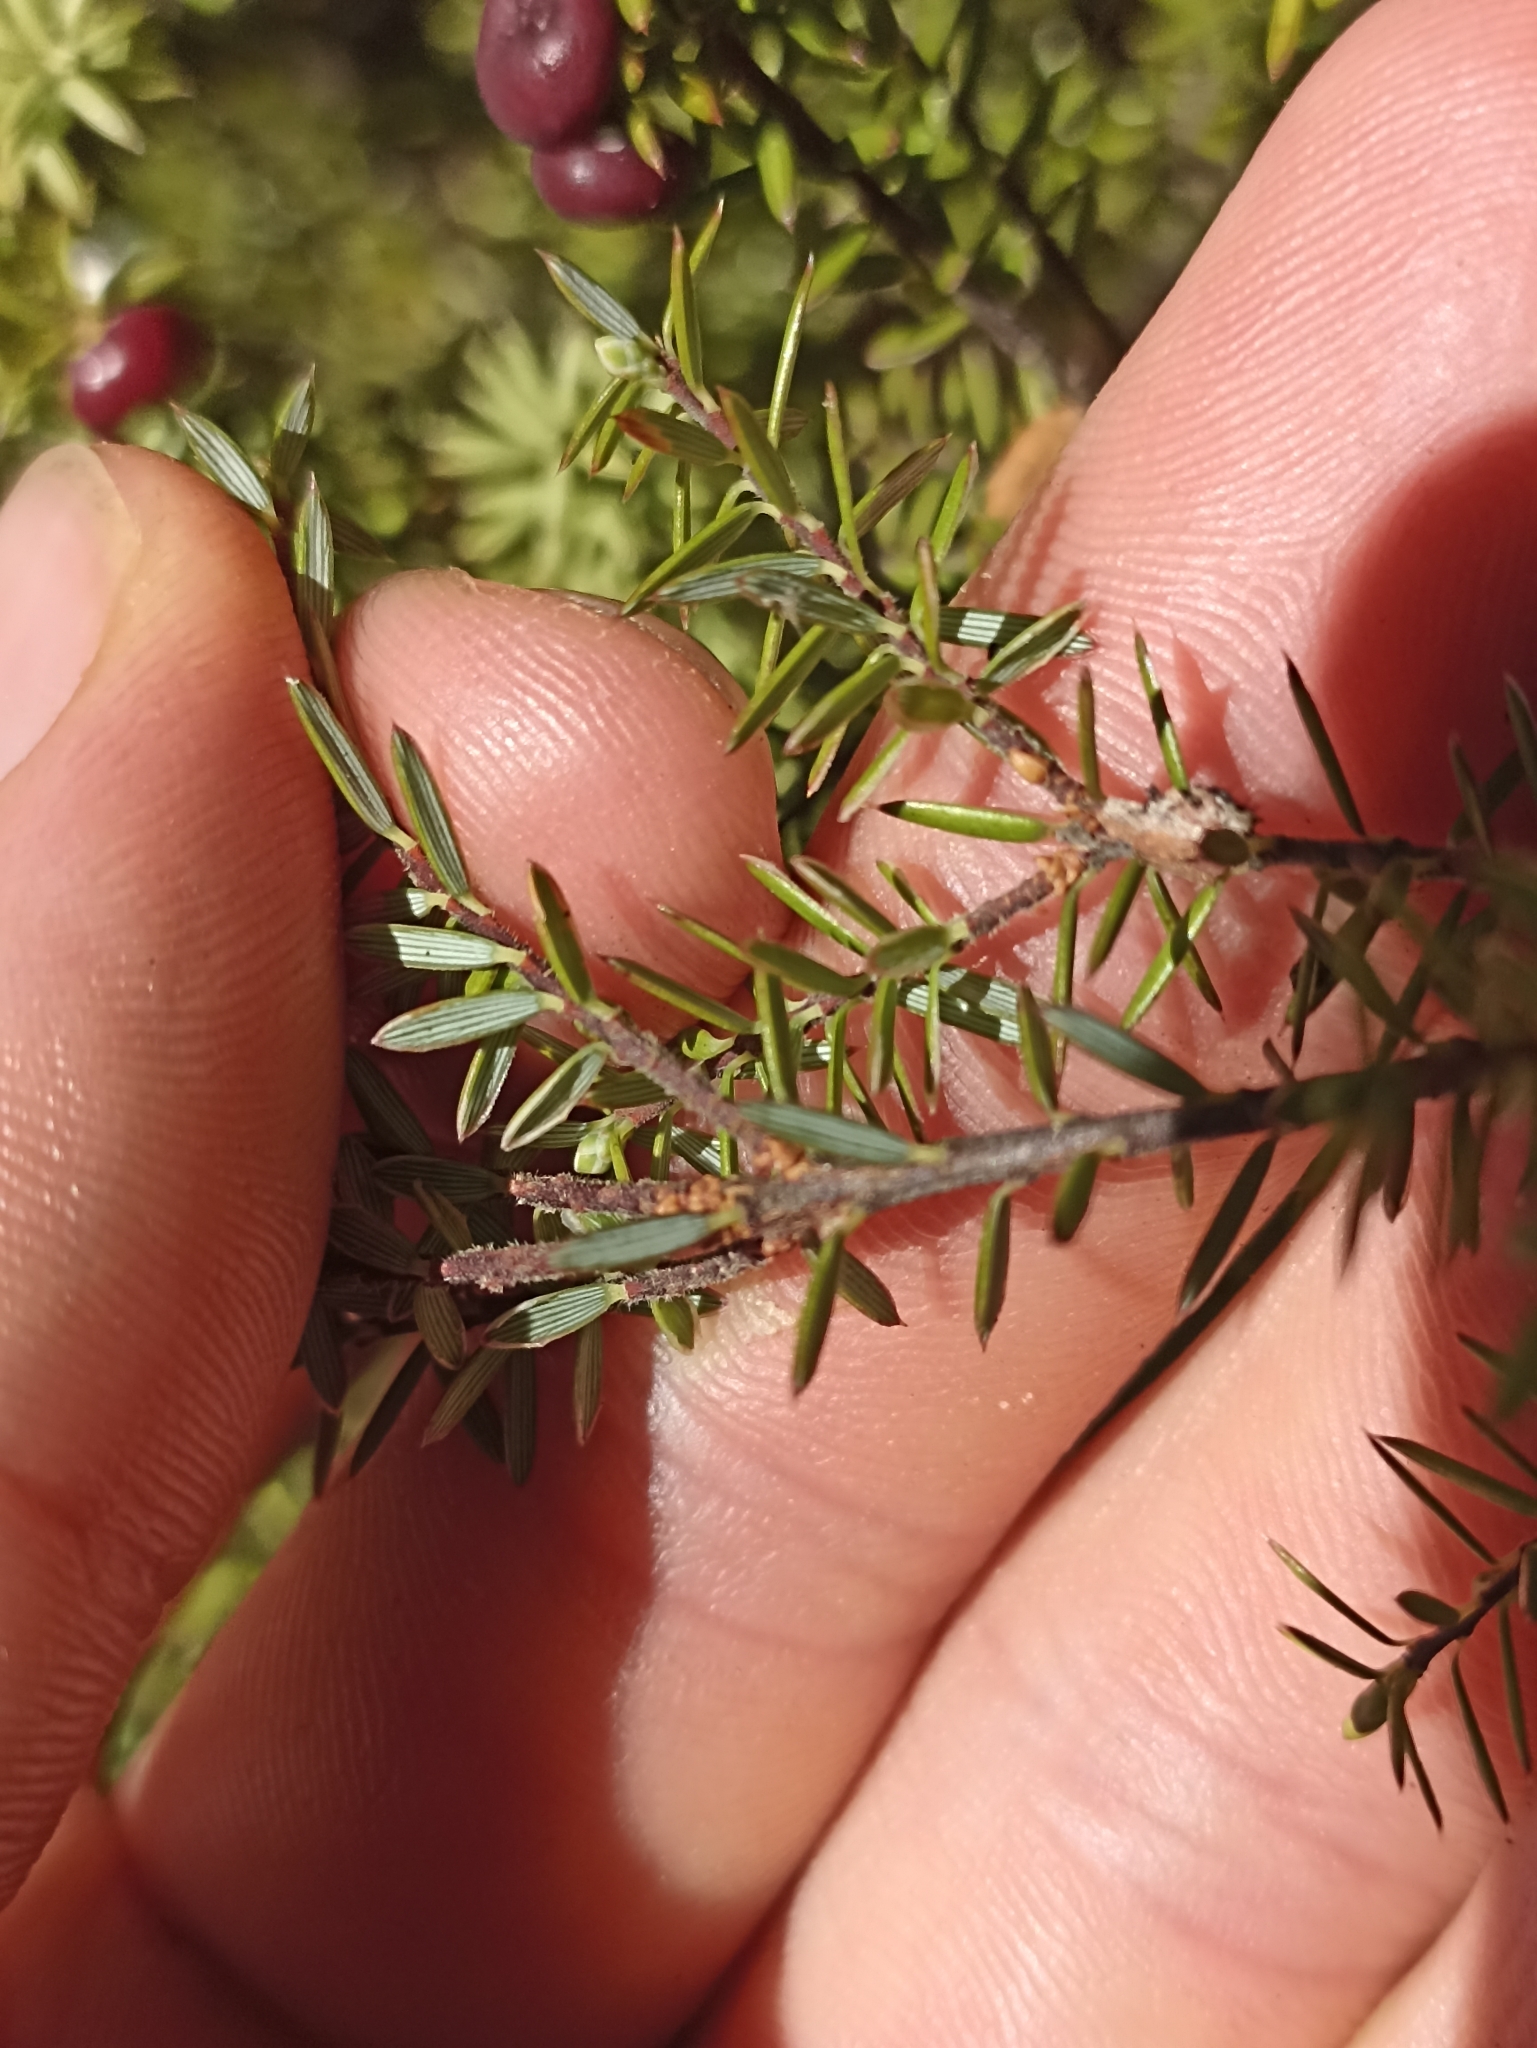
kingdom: Plantae
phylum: Tracheophyta
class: Magnoliopsida
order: Ericales
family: Ericaceae
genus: Leptecophylla
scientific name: Leptecophylla juniperina
